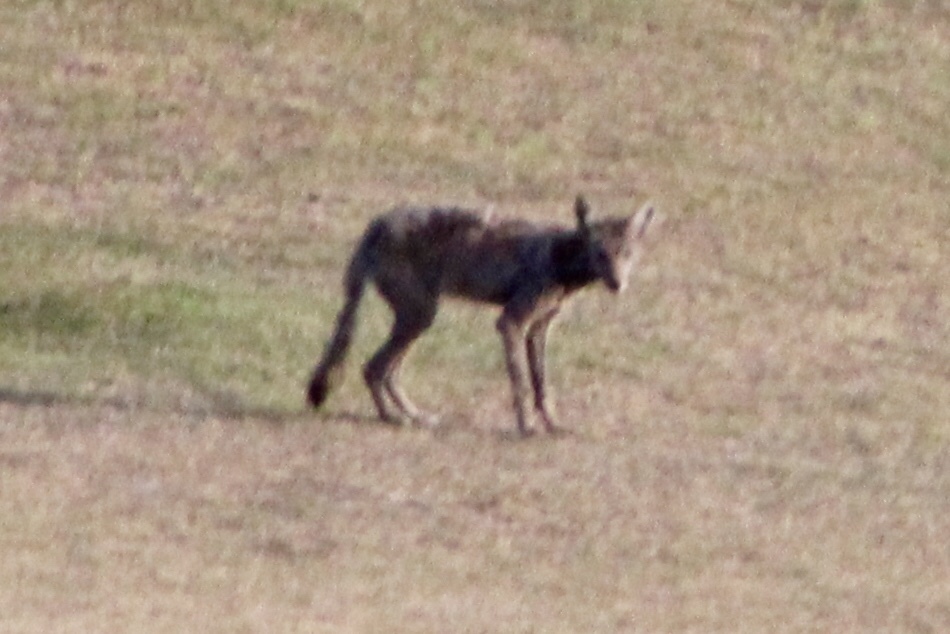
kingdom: Animalia
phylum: Chordata
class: Mammalia
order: Carnivora
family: Canidae
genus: Canis
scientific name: Canis latrans
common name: Coyote
